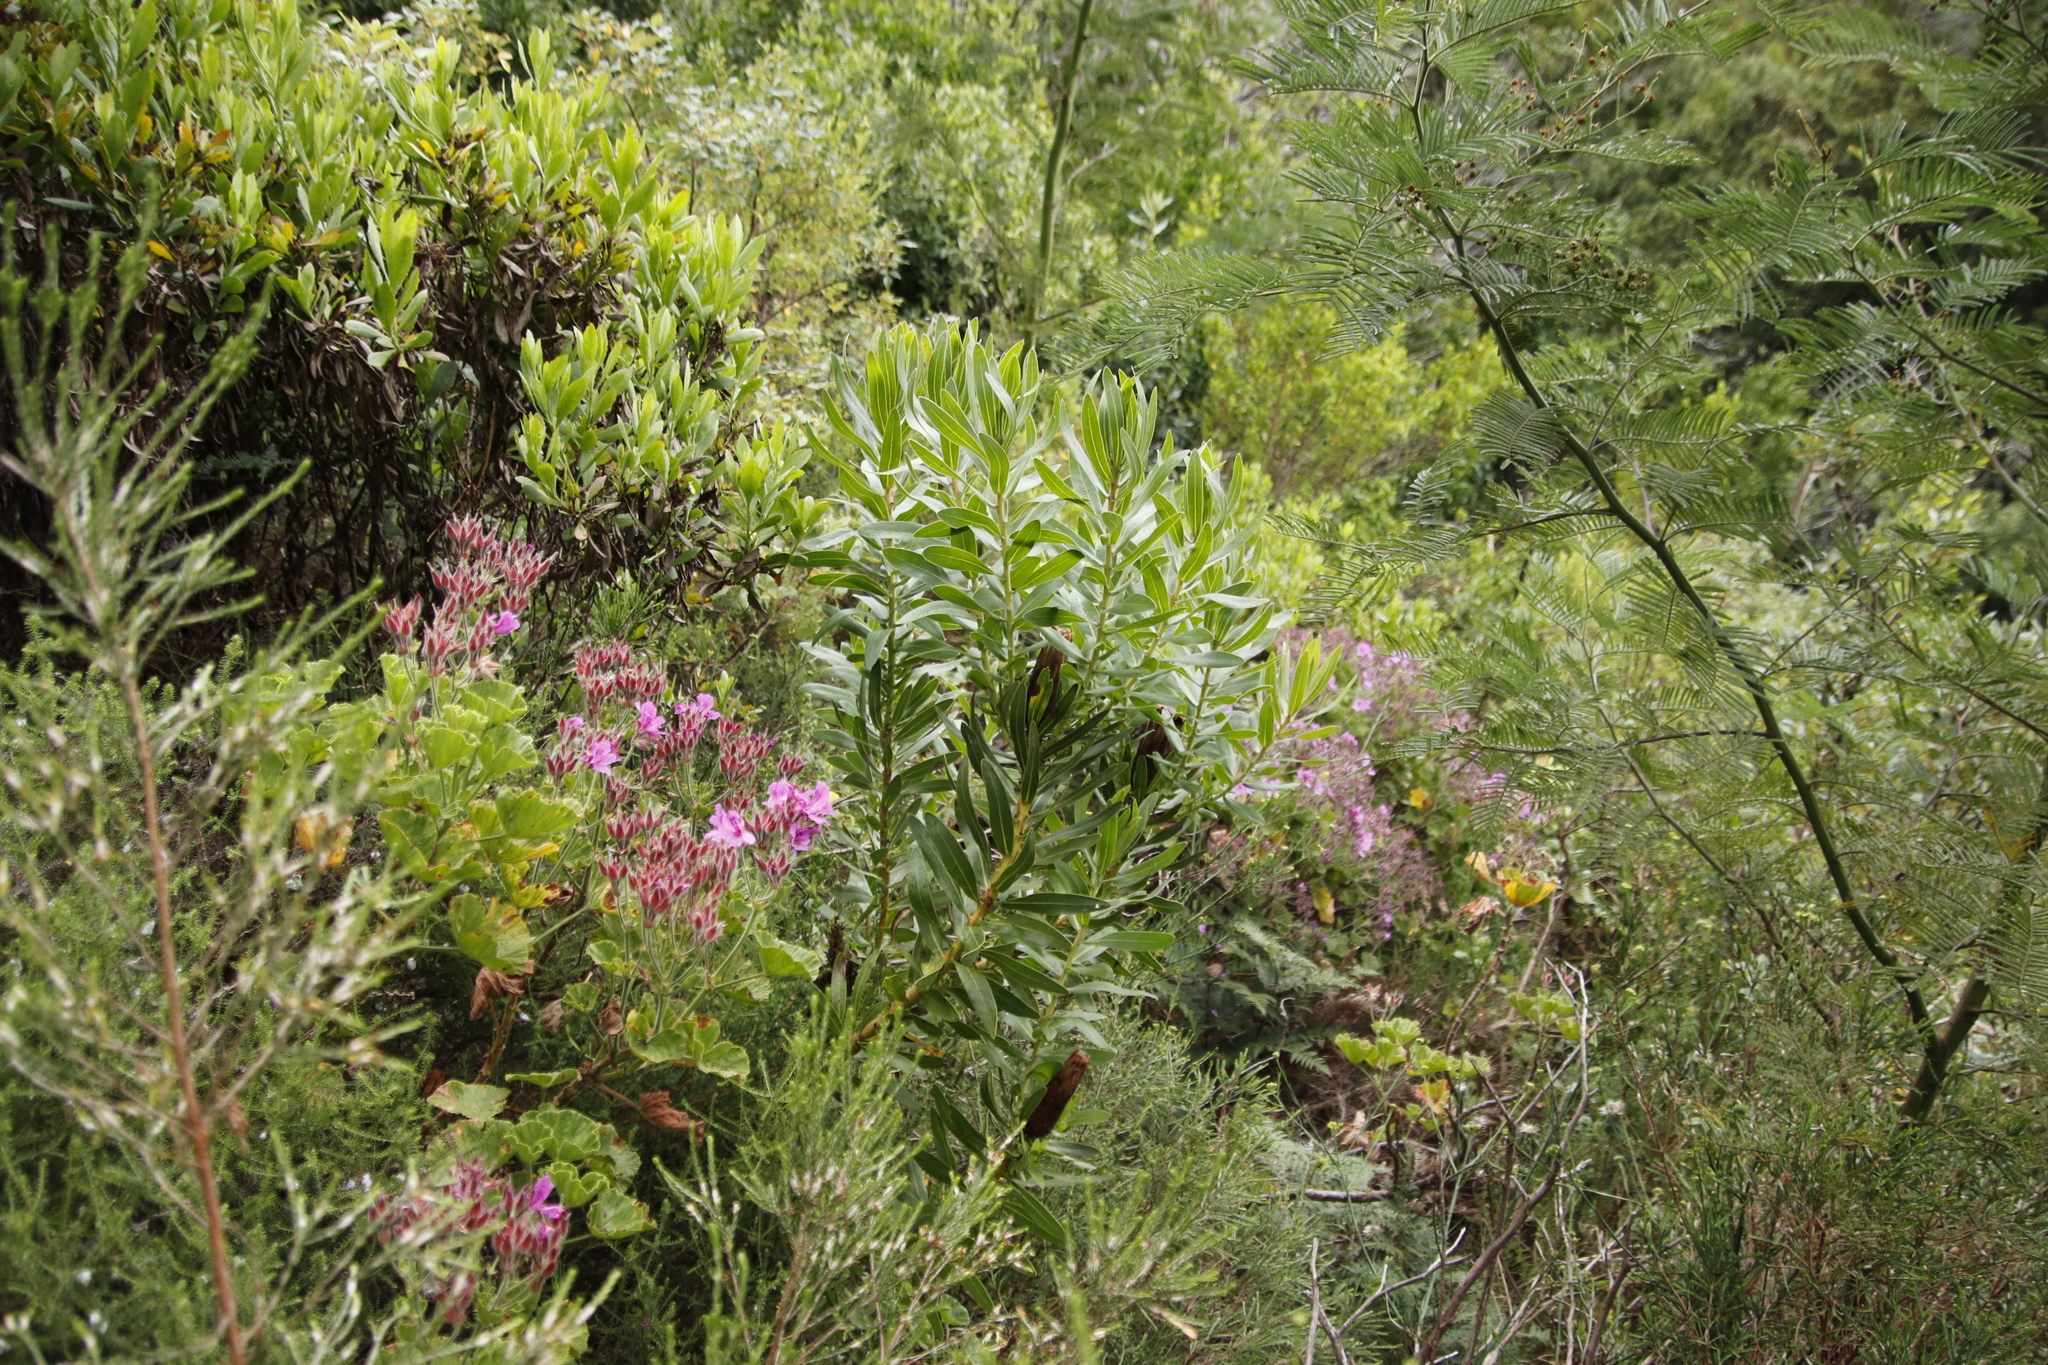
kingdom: Plantae
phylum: Tracheophyta
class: Magnoliopsida
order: Proteales
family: Proteaceae
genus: Protea
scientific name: Protea lepidocarpodendron
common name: Black-bearded protea
